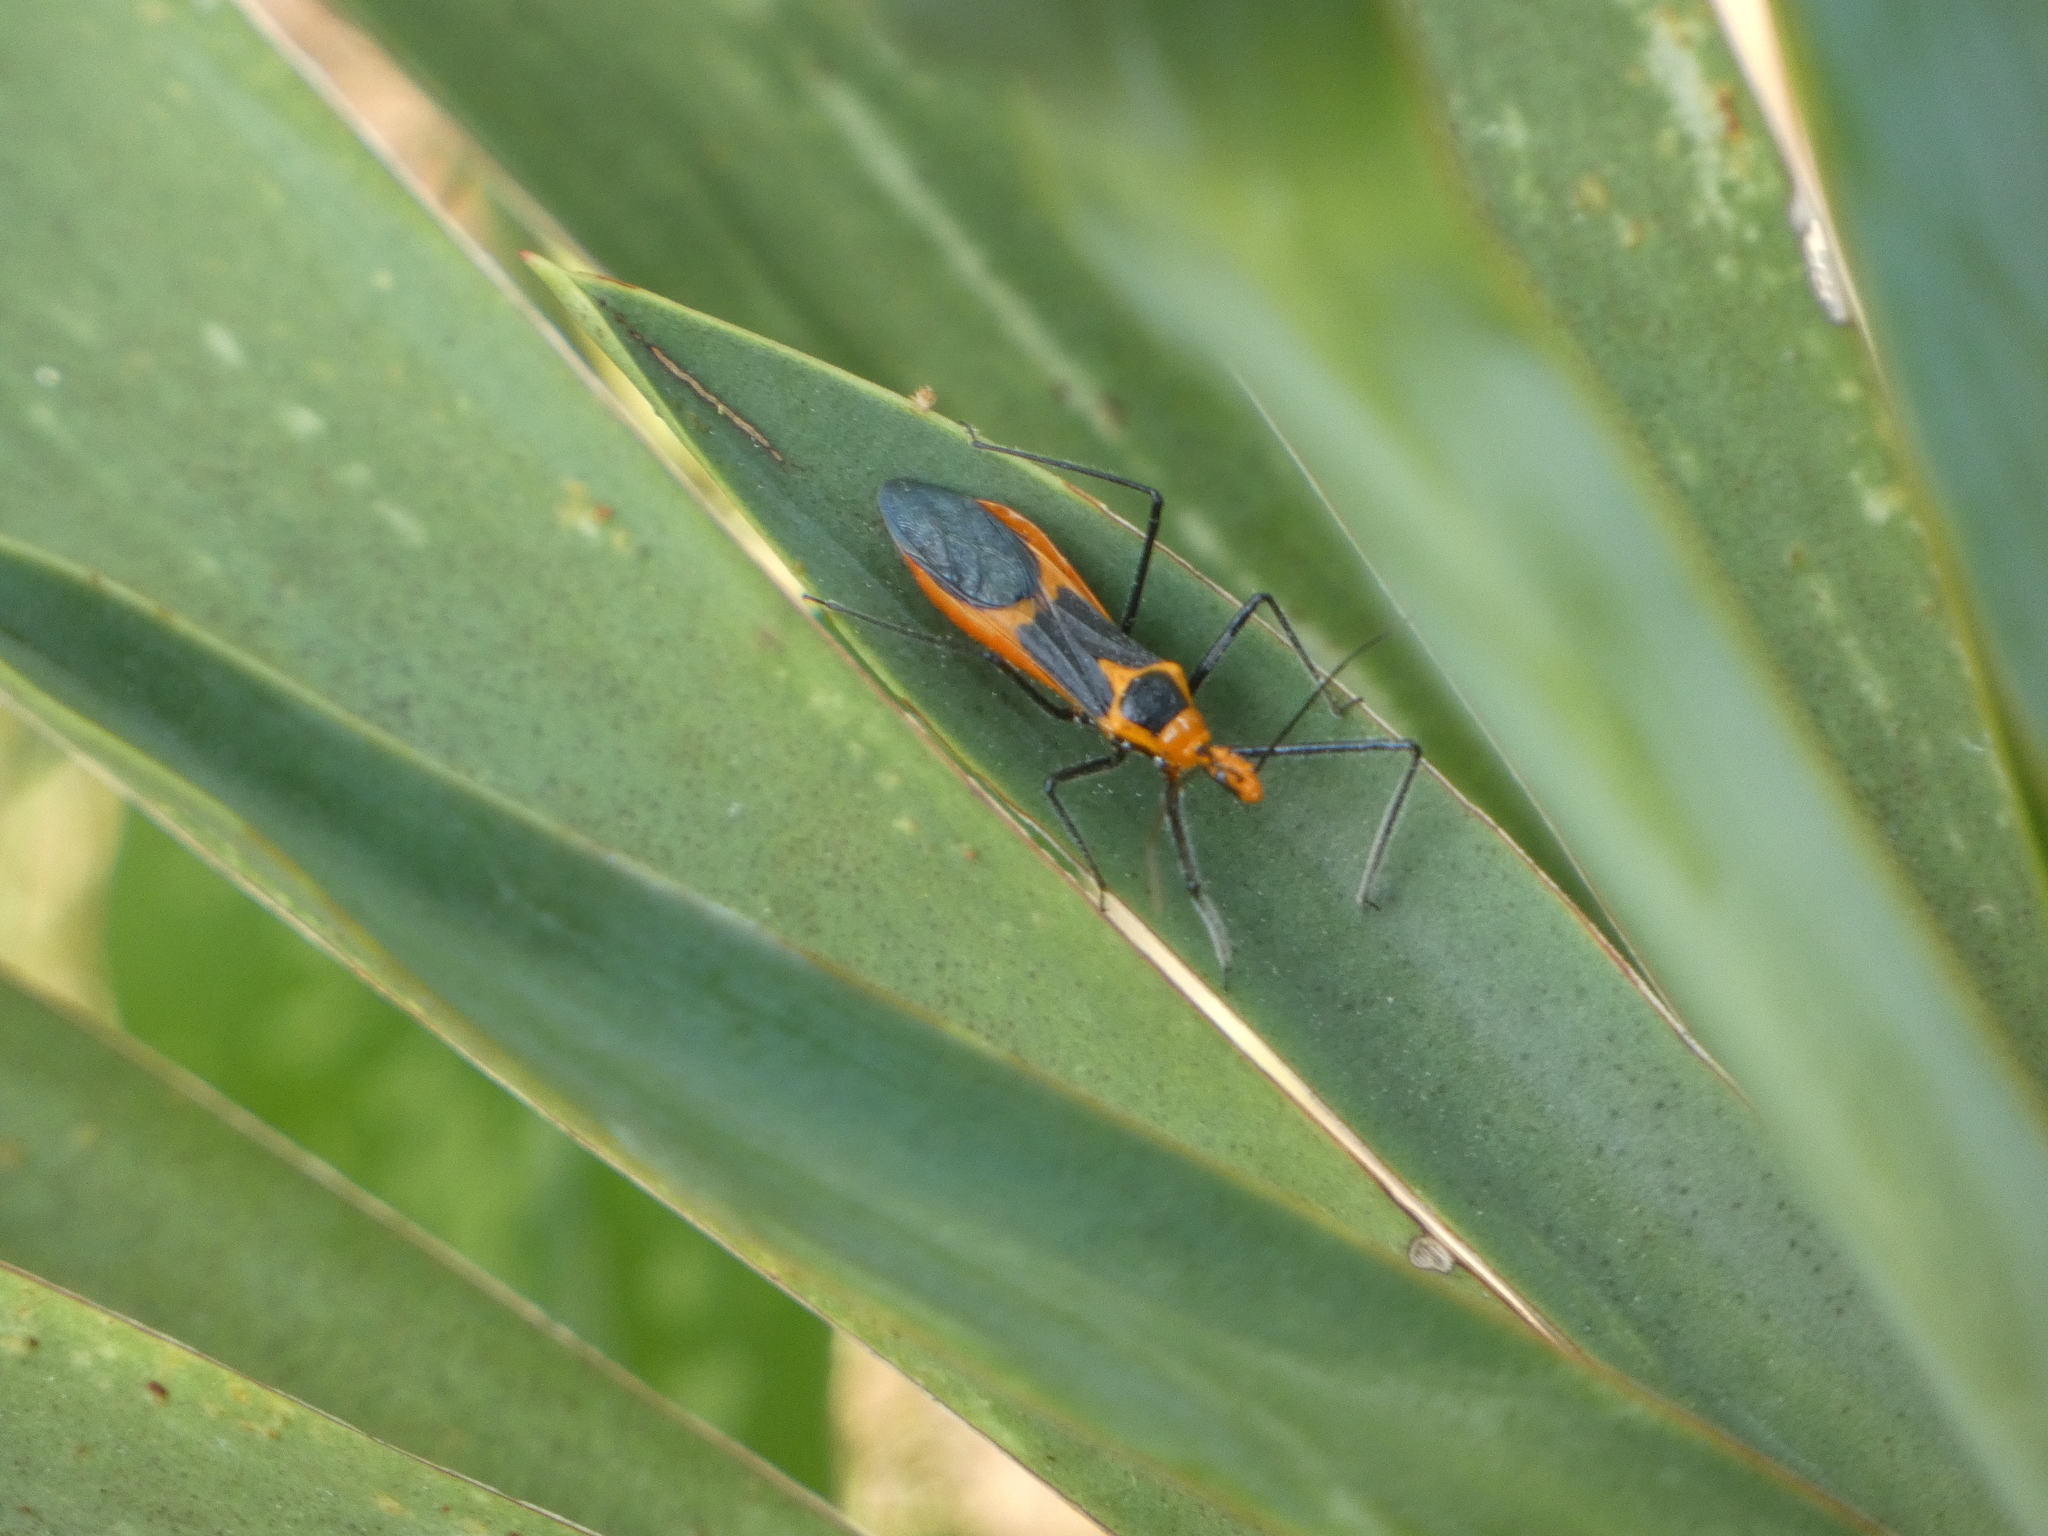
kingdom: Animalia
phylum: Arthropoda
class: Insecta
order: Hemiptera
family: Reduviidae
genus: Zelus
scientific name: Zelus longipes
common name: Milkweed assassin bug
